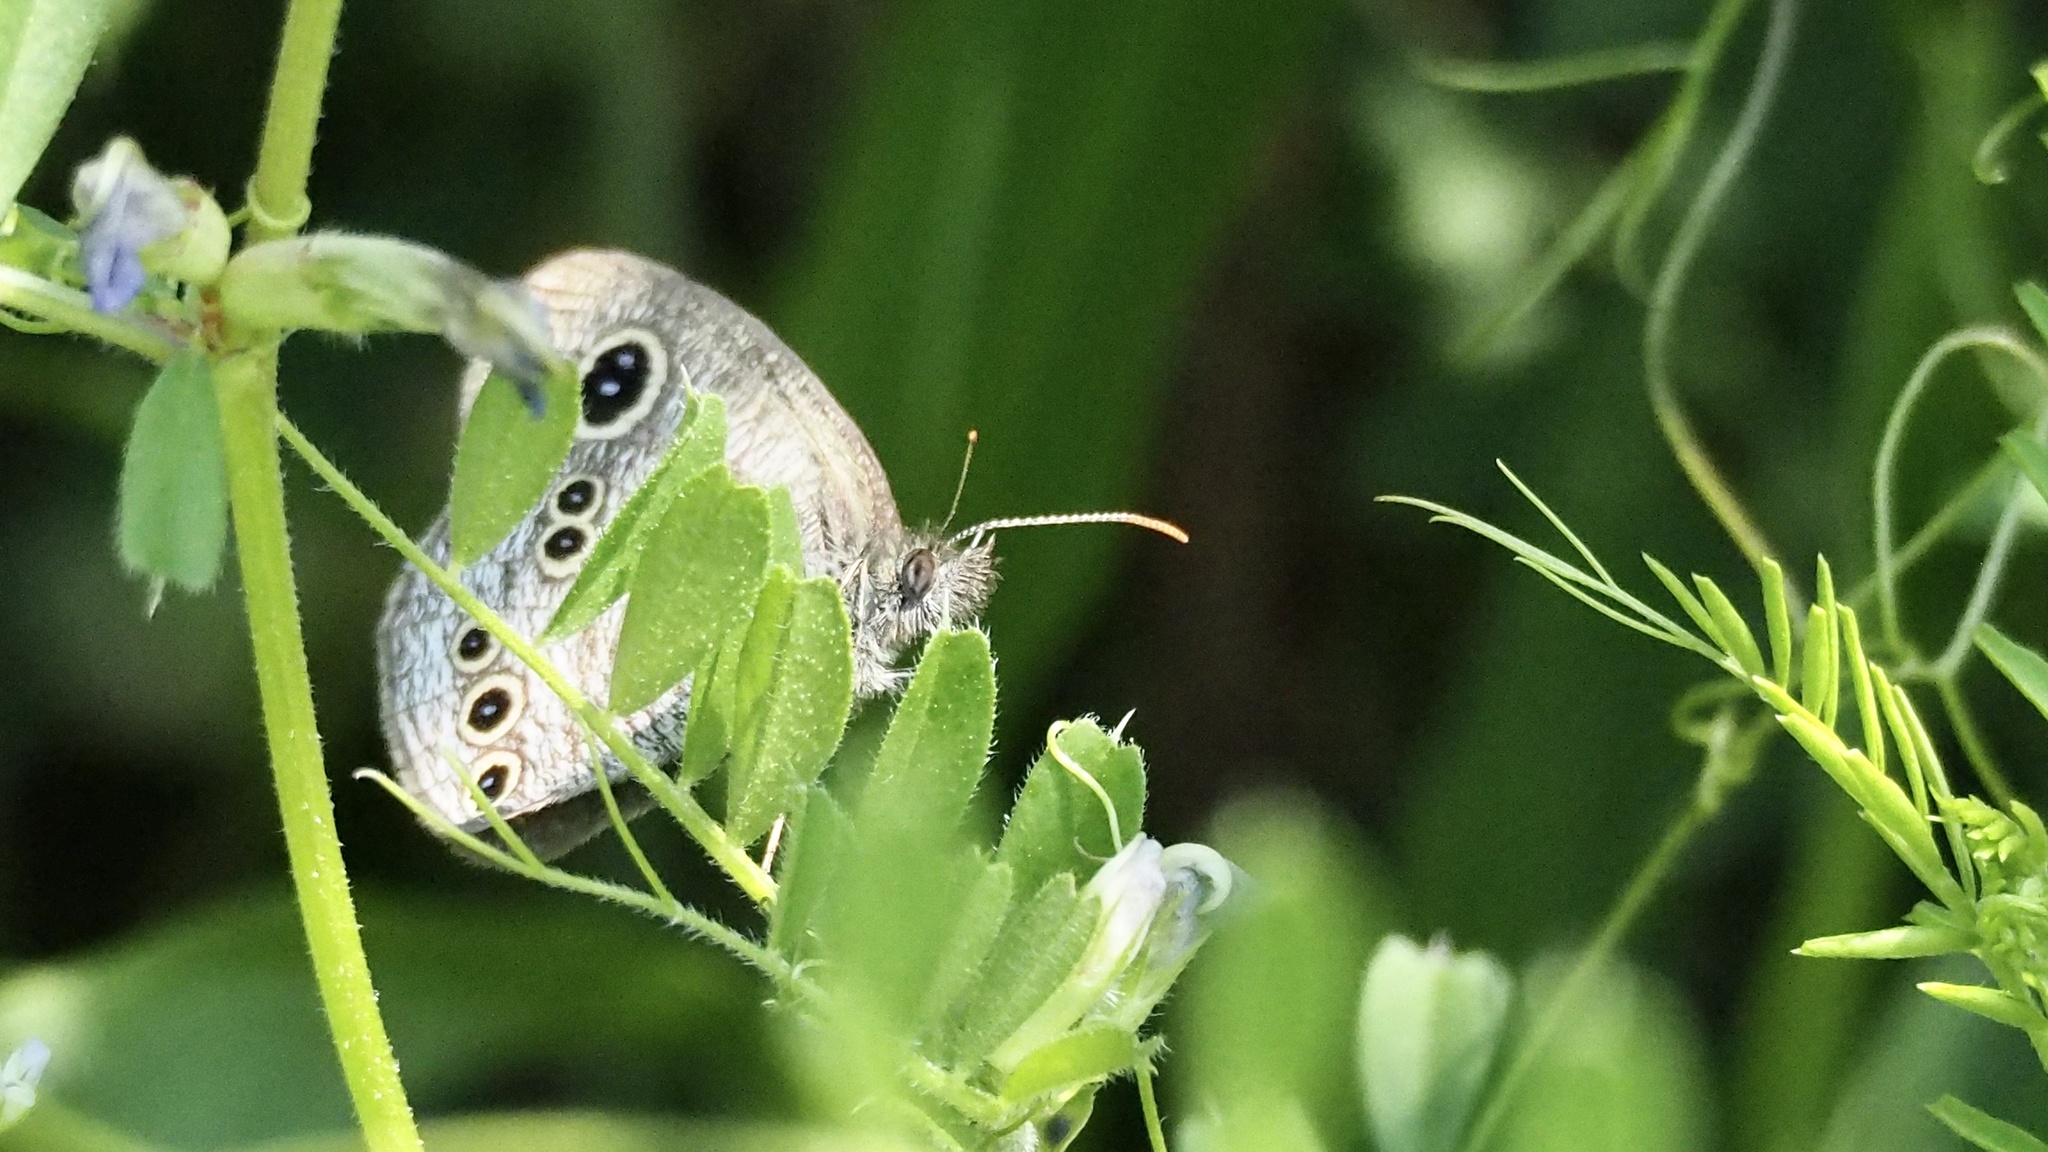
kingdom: Animalia
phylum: Arthropoda
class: Insecta
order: Lepidoptera
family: Nymphalidae
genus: Ypthima
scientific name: Ypthima argus
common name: Common fivering
